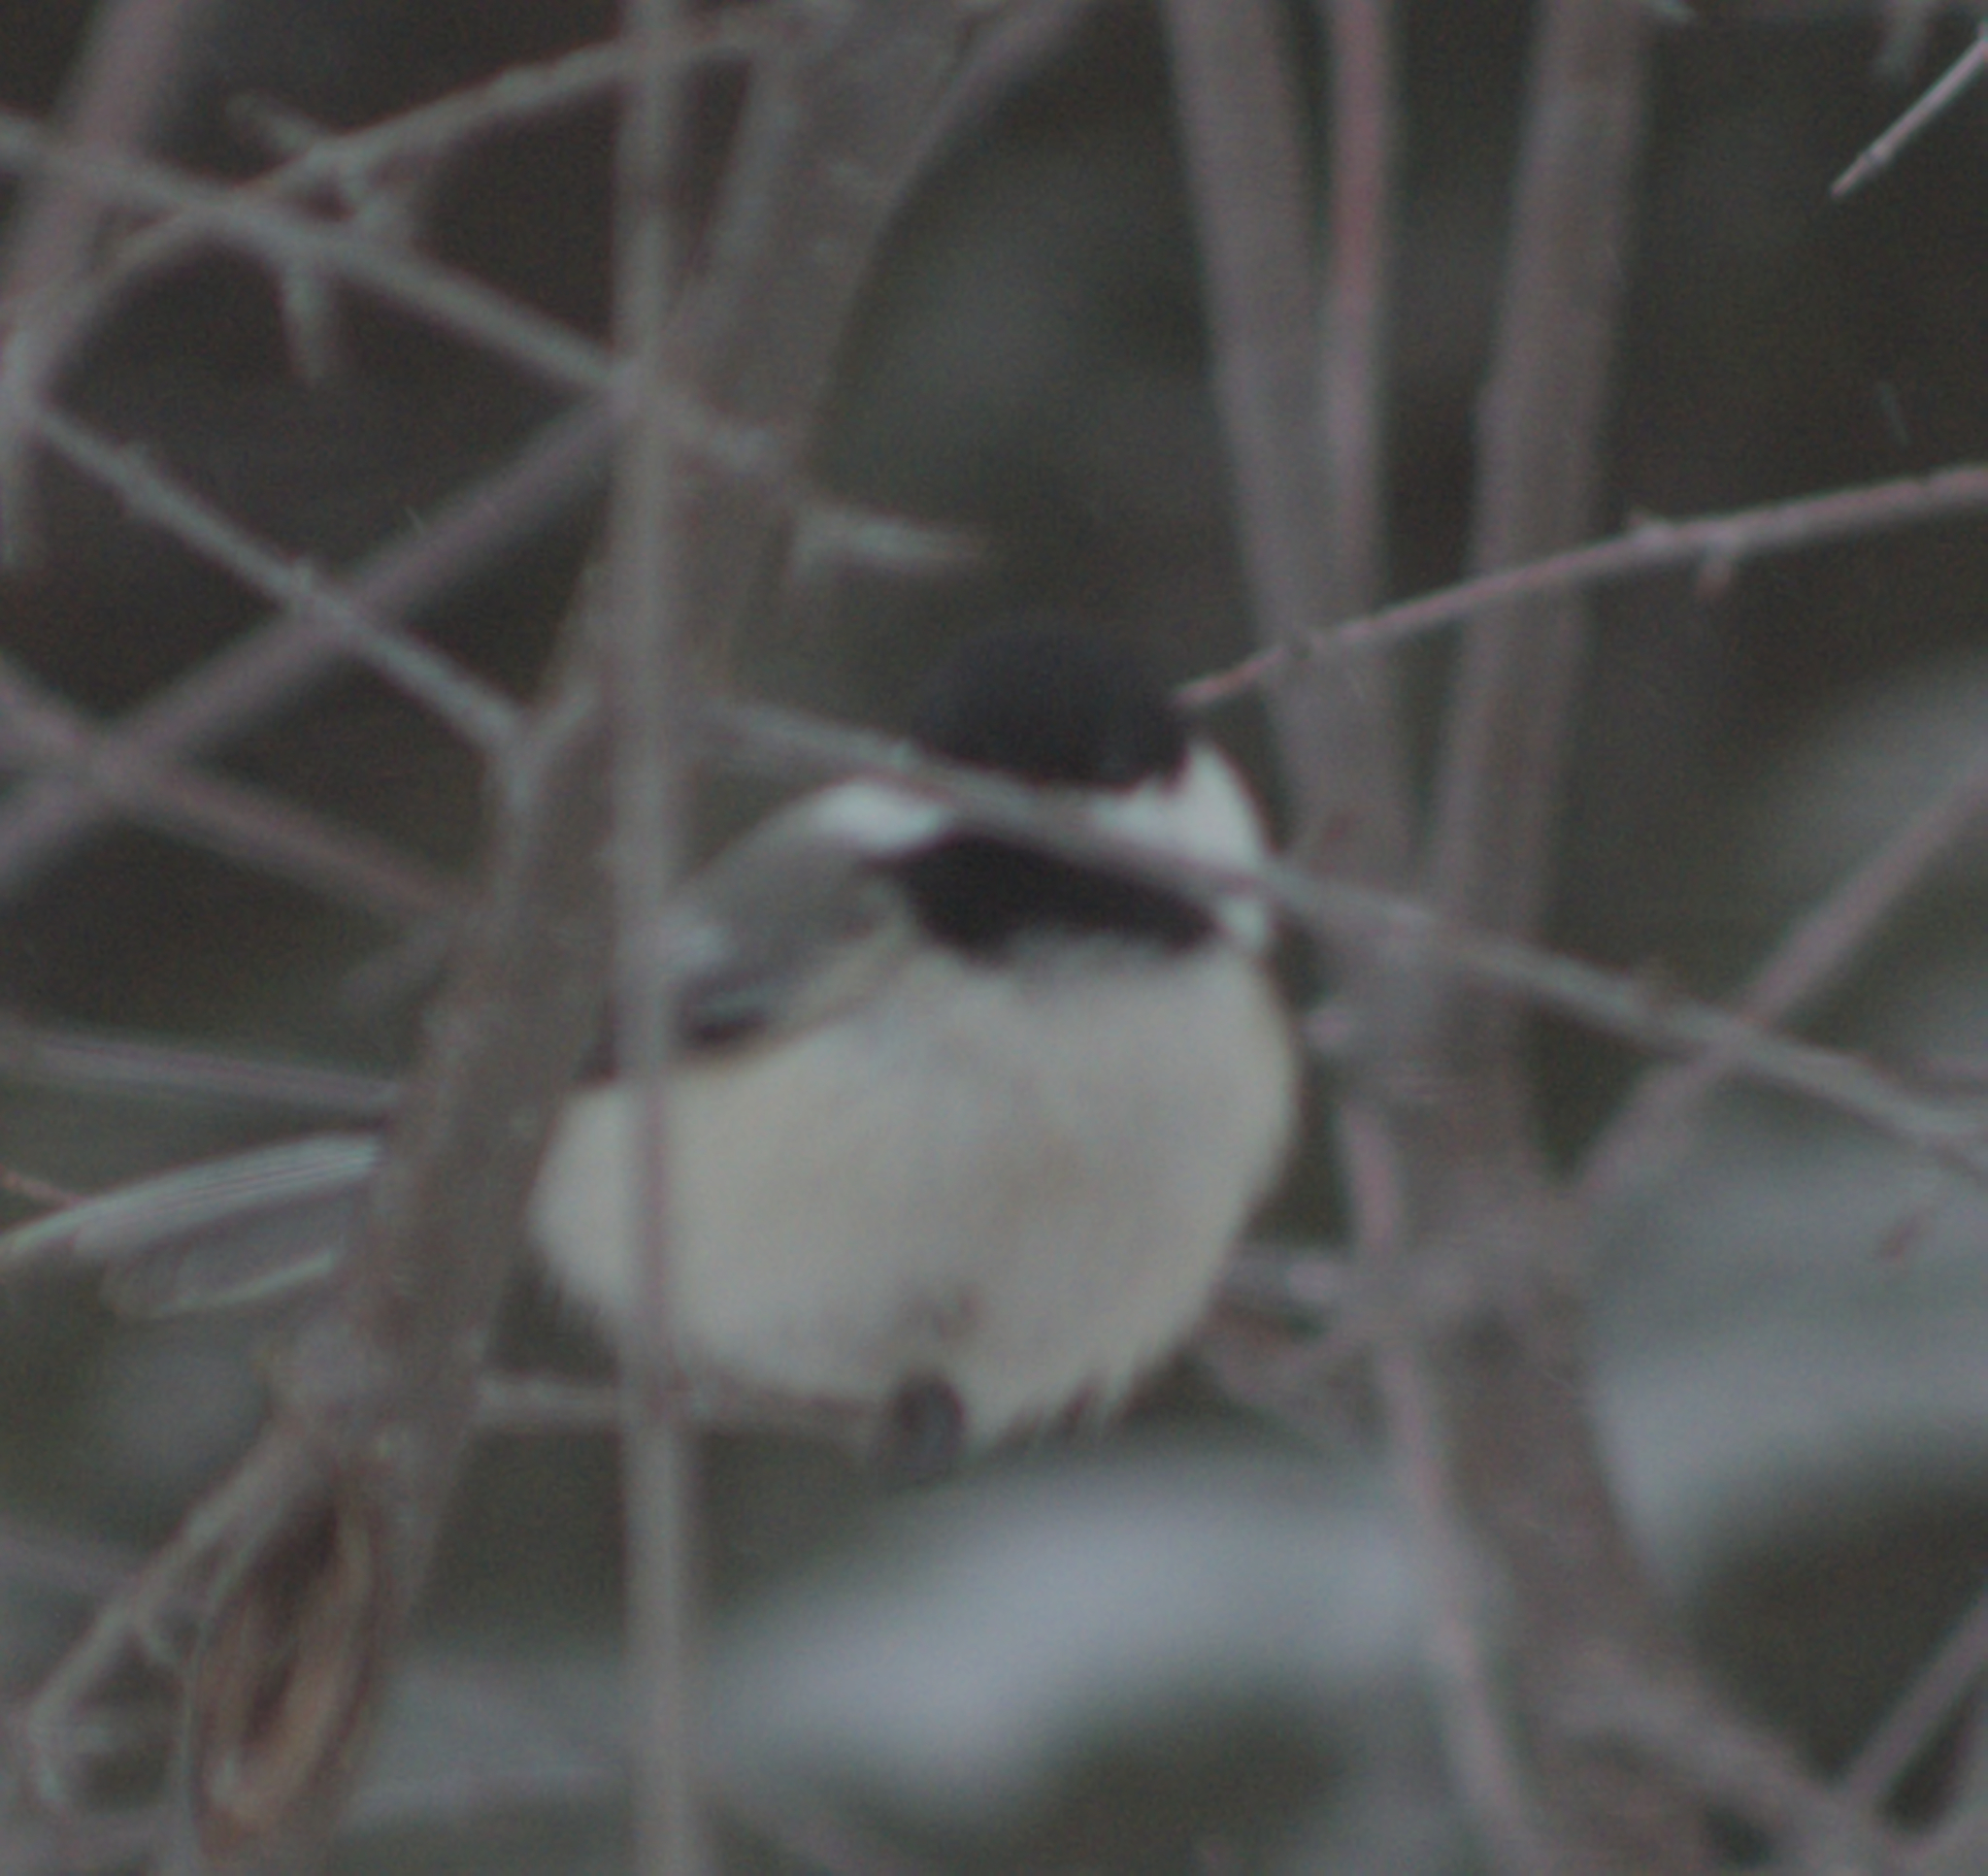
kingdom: Animalia
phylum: Chordata
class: Aves
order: Passeriformes
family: Paridae
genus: Poecile
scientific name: Poecile atricapillus
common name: Black-capped chickadee
